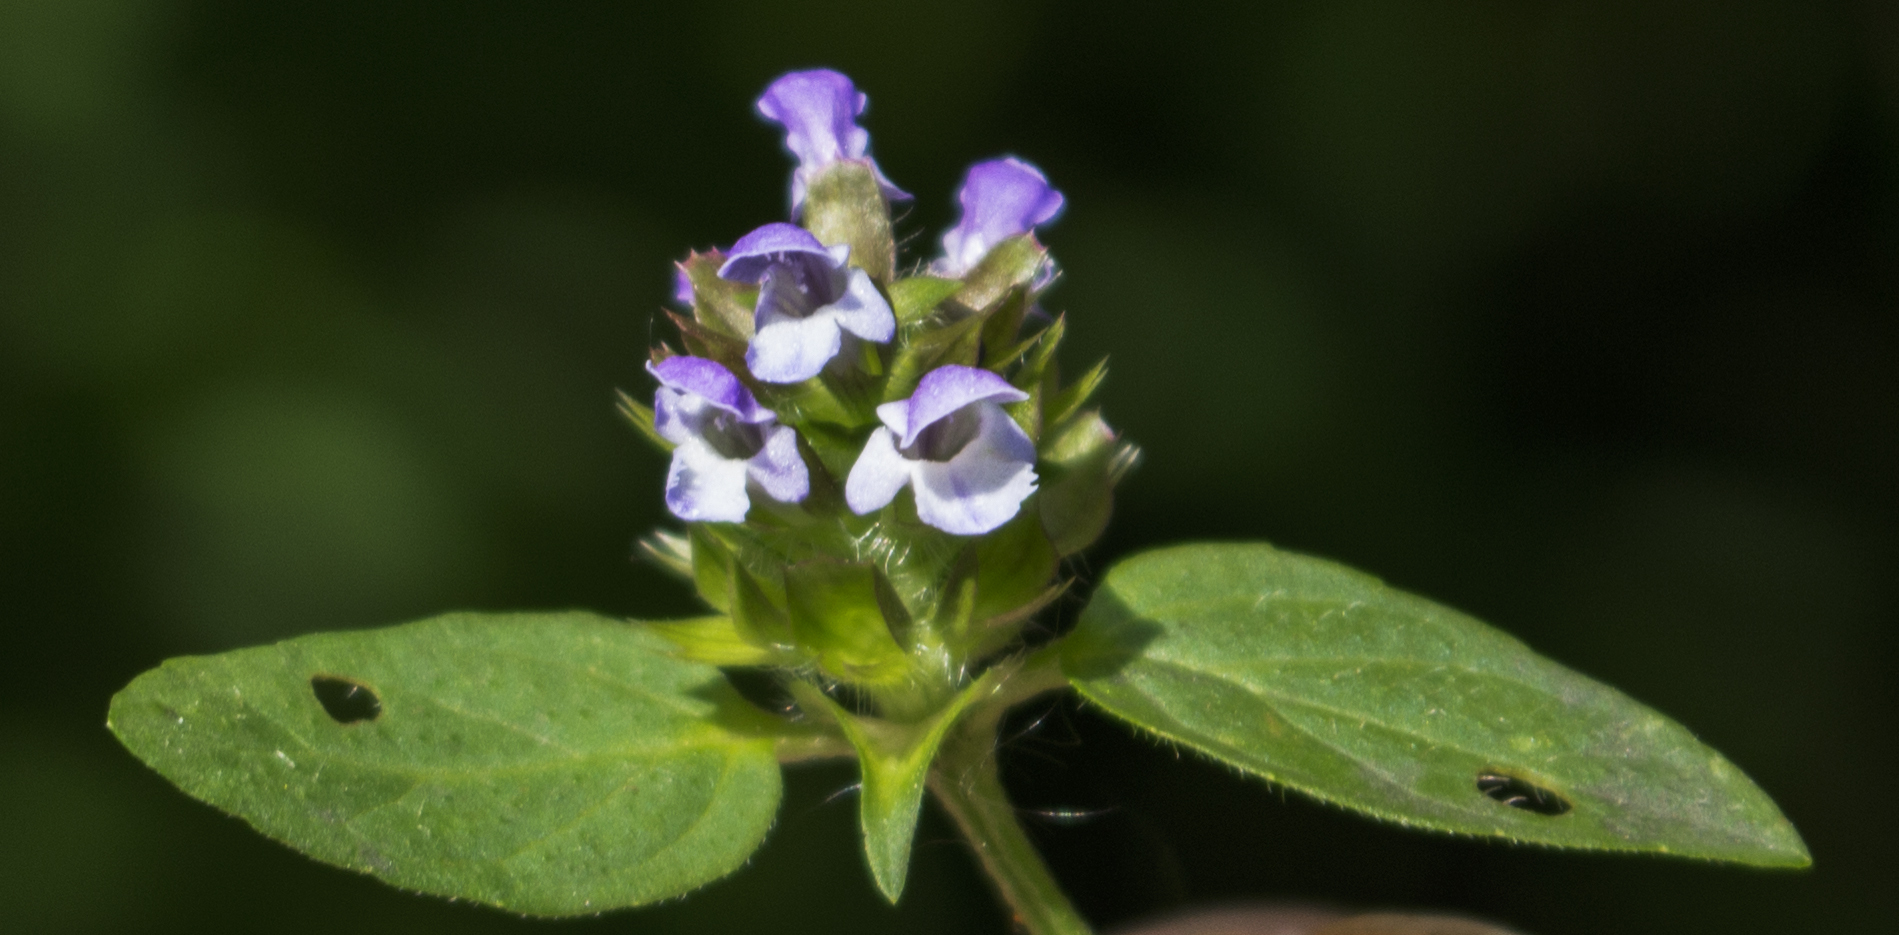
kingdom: Plantae
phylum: Tracheophyta
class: Magnoliopsida
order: Lamiales
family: Lamiaceae
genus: Prunella
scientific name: Prunella vulgaris
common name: Heal-all
